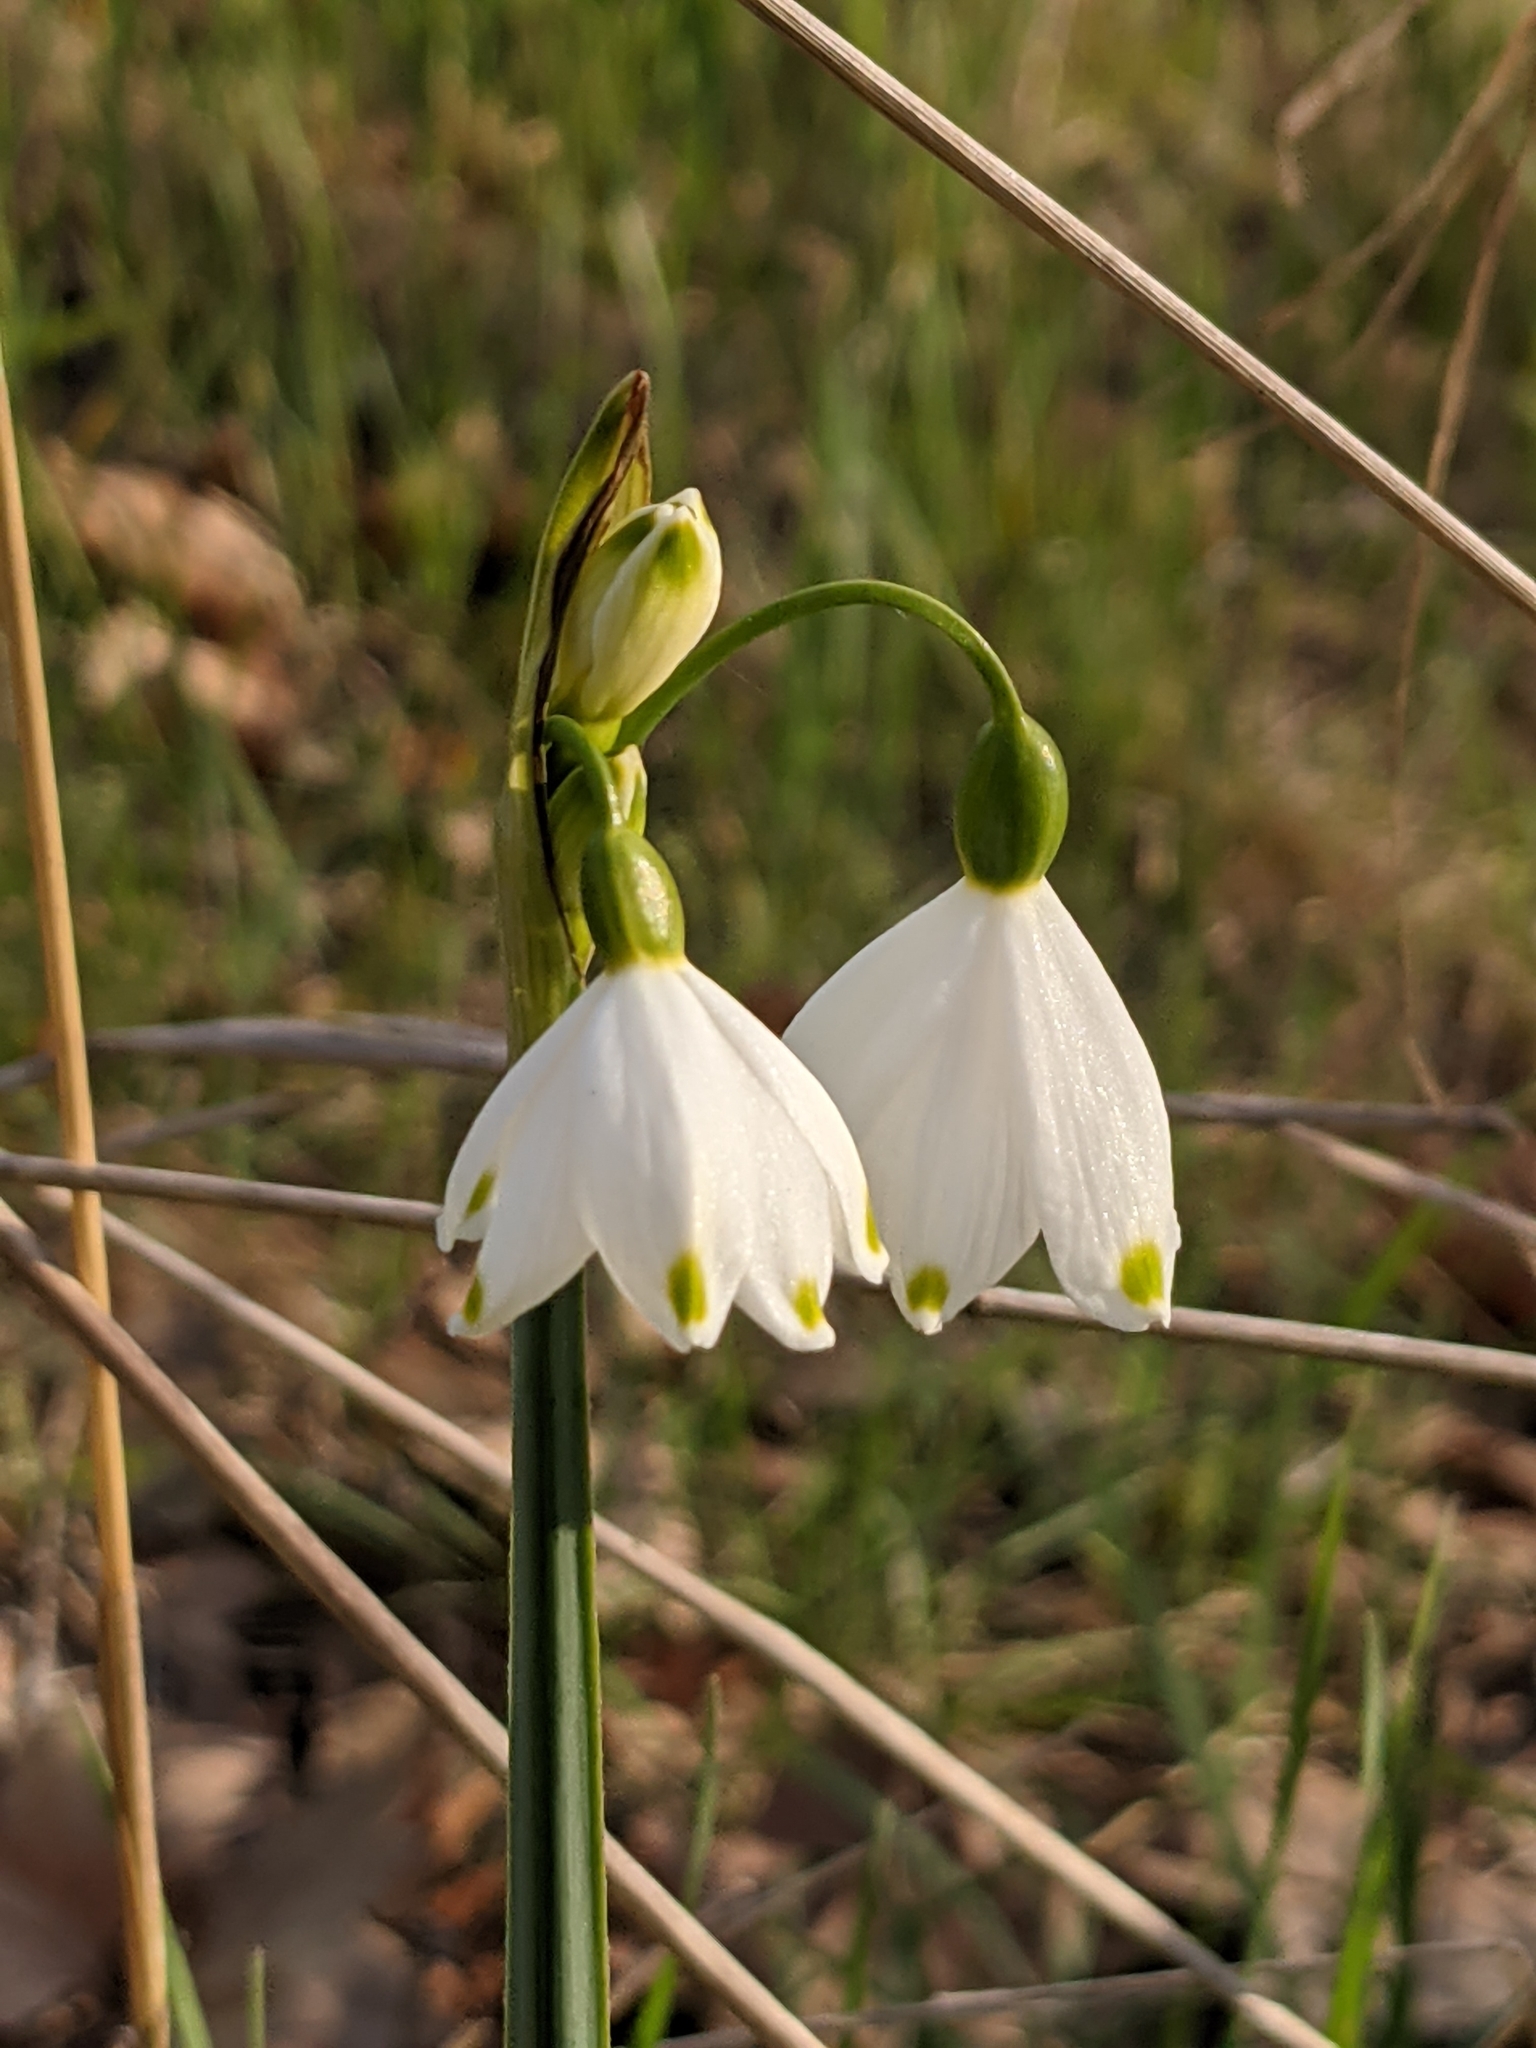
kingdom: Plantae
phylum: Tracheophyta
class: Liliopsida
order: Asparagales
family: Amaryllidaceae
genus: Leucojum
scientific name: Leucojum aestivum
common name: Summer snowflake
